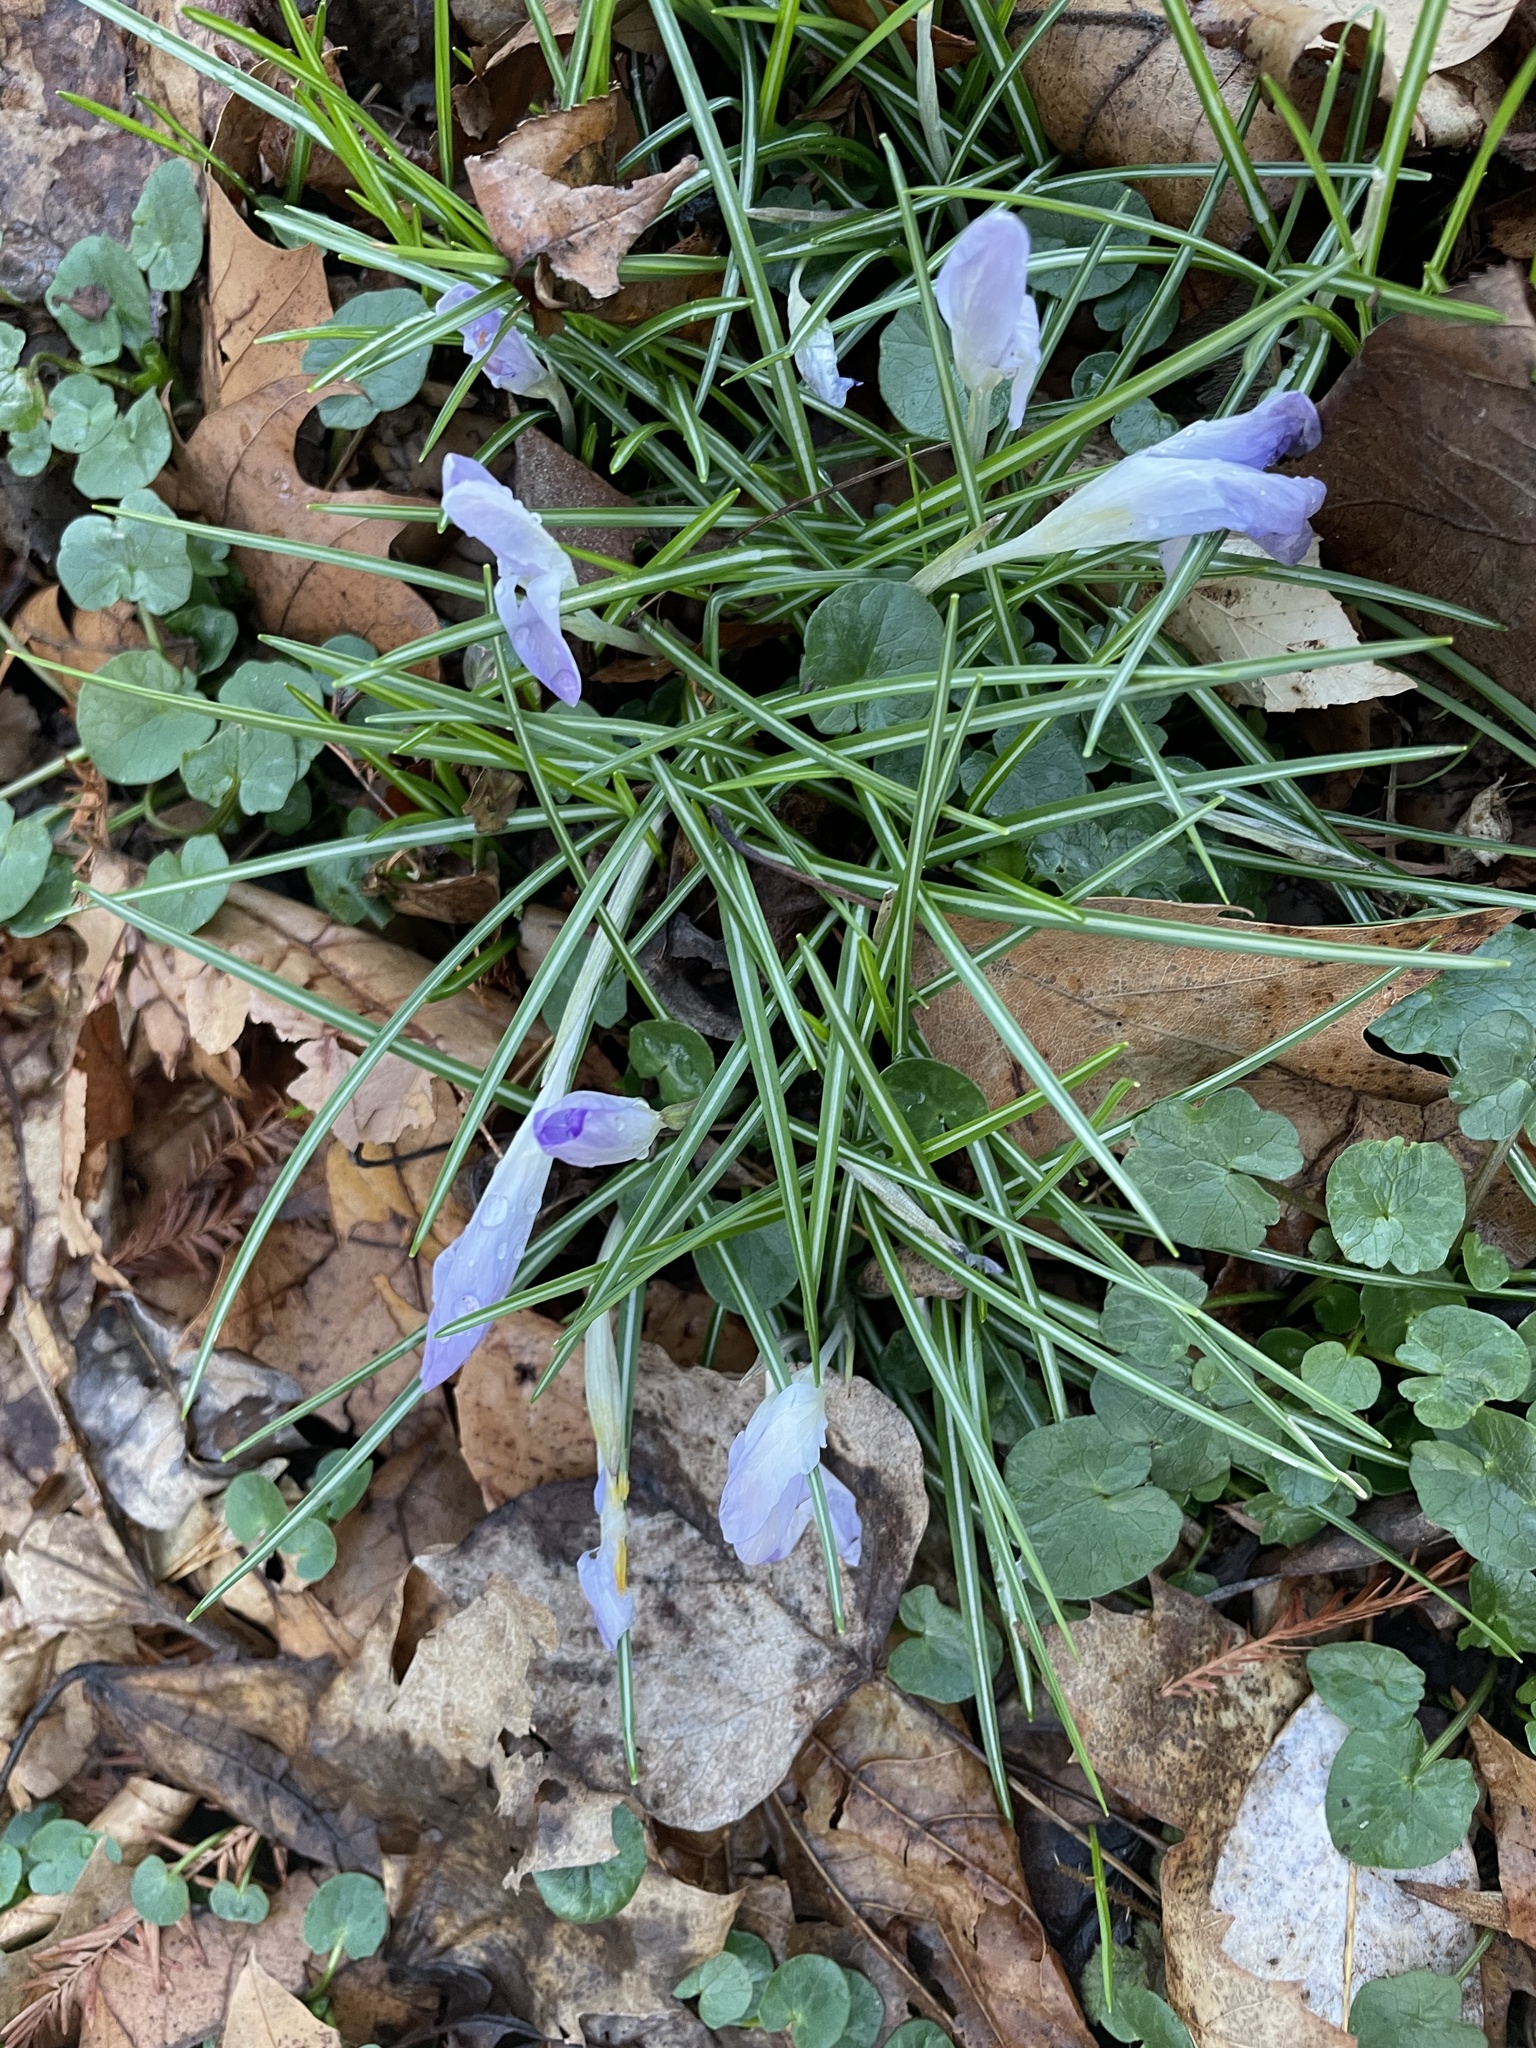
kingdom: Plantae
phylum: Tracheophyta
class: Liliopsida
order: Asparagales
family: Iridaceae
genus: Crocus
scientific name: Crocus tommasinianus
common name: Early crocus
